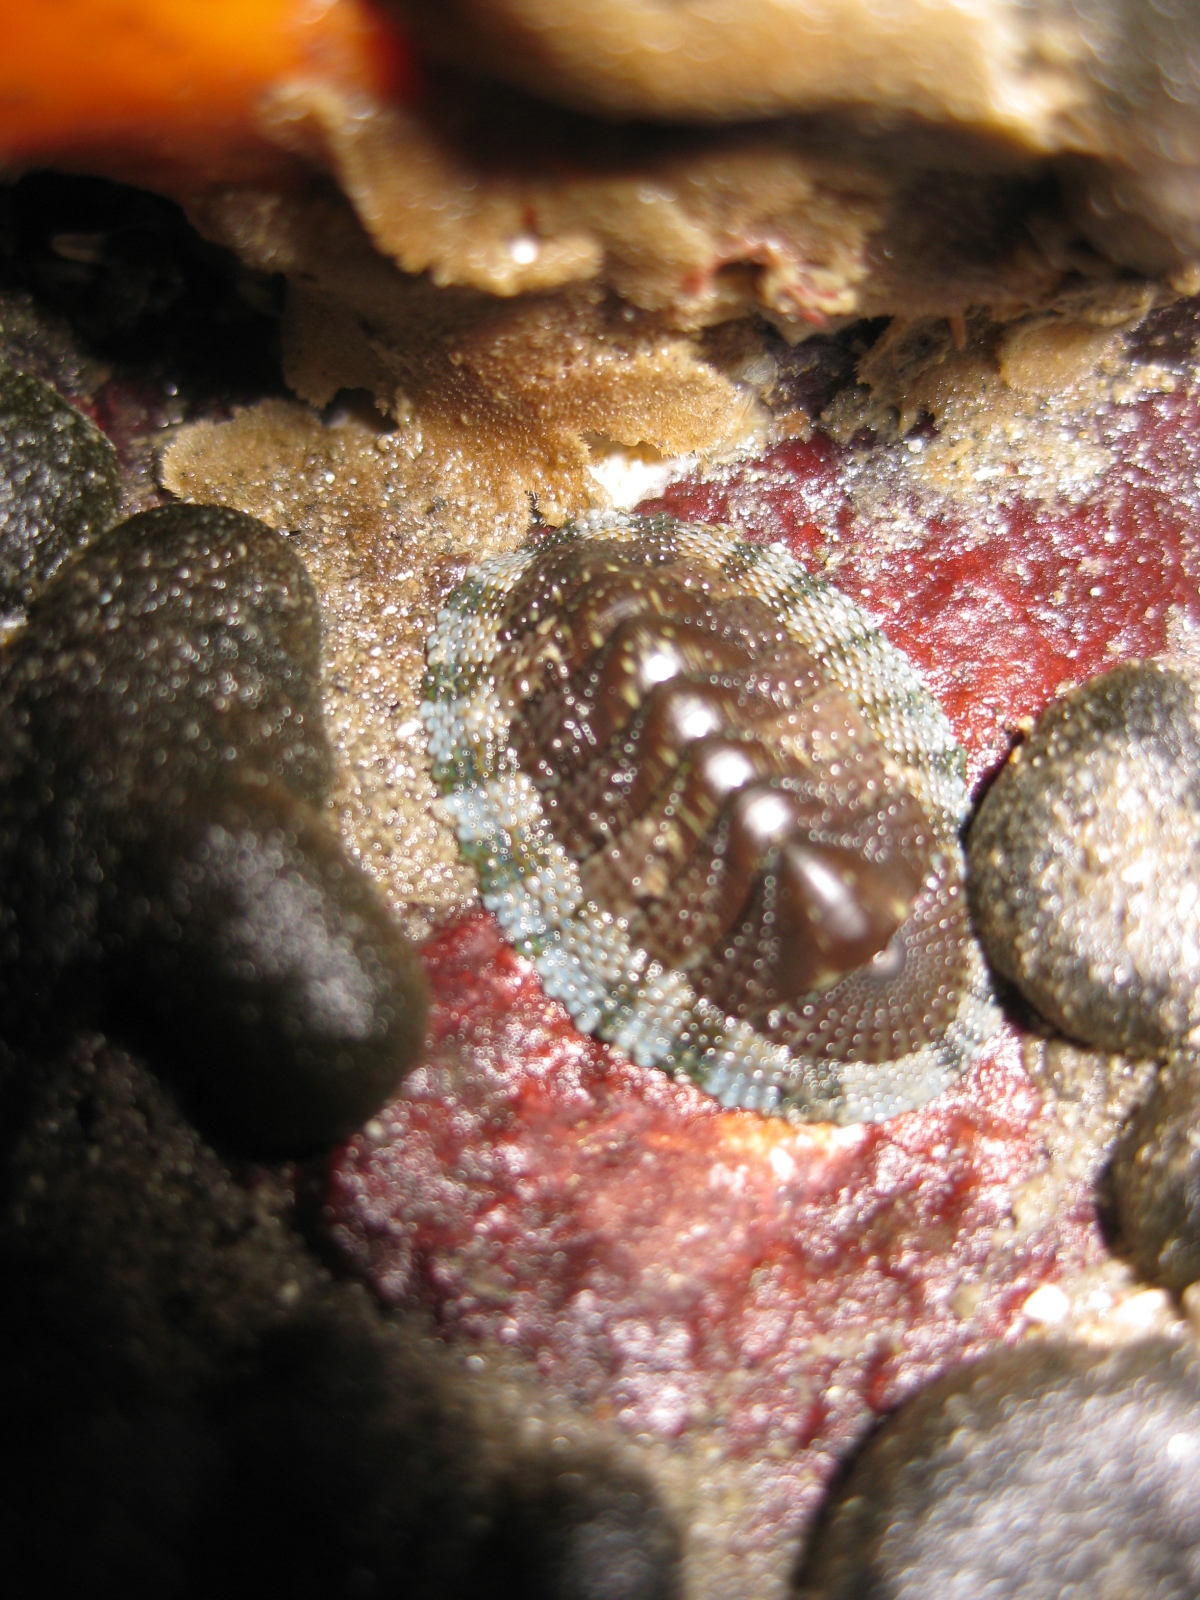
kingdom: Animalia
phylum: Mollusca
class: Polyplacophora
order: Chitonida
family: Chitonidae
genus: Sypharochiton
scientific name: Sypharochiton sinclairi
